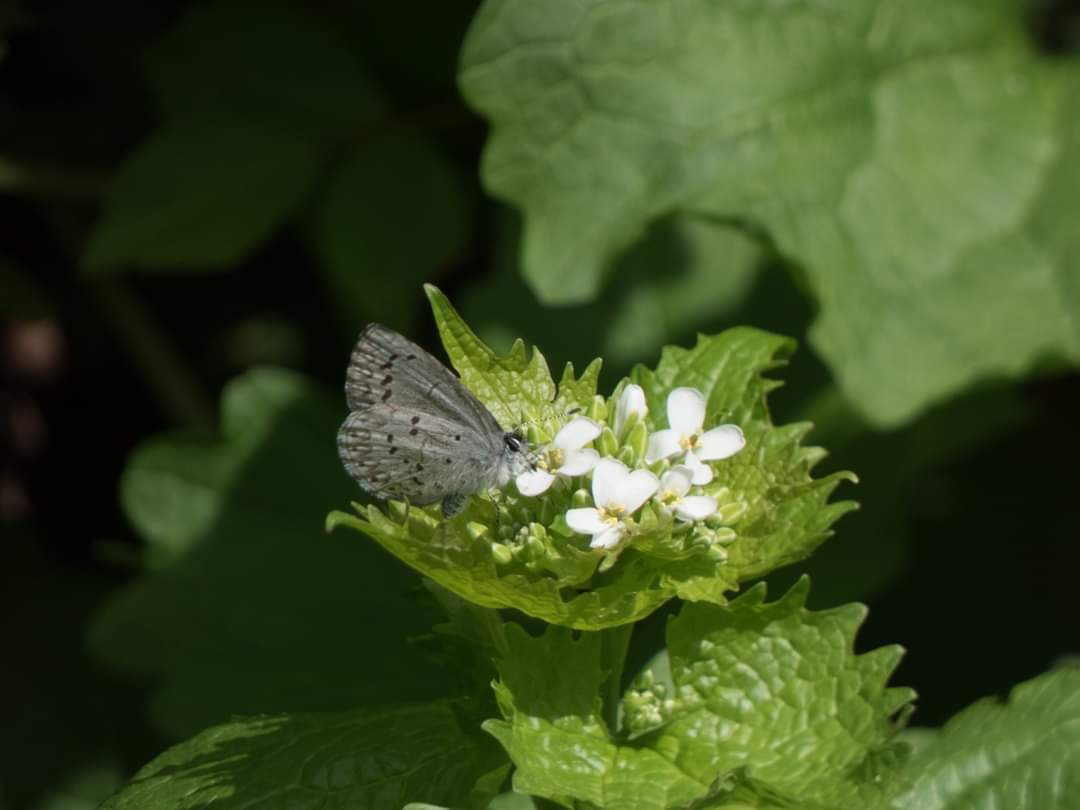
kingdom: Animalia
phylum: Arthropoda
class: Insecta
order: Lepidoptera
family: Lycaenidae
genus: Celastrina
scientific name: Celastrina ladon
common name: Spring azure
